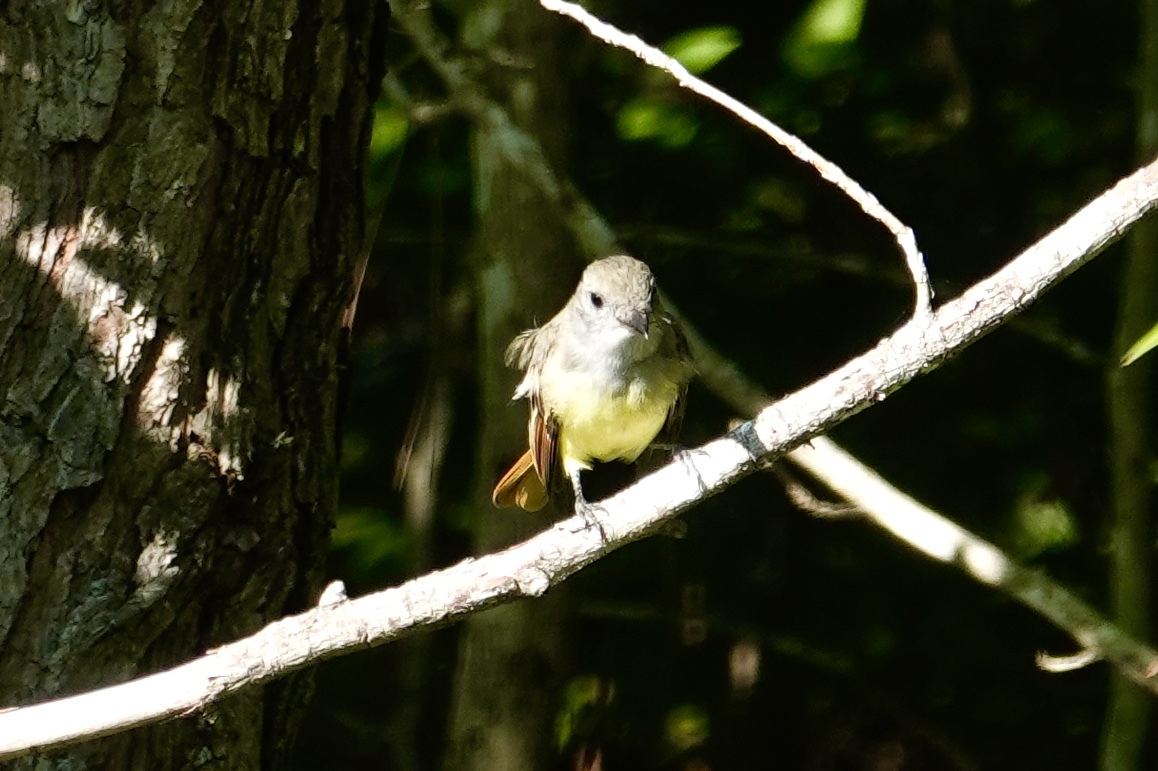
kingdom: Animalia
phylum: Chordata
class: Aves
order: Passeriformes
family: Tyrannidae
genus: Myiarchus
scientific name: Myiarchus crinitus
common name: Great crested flycatcher
